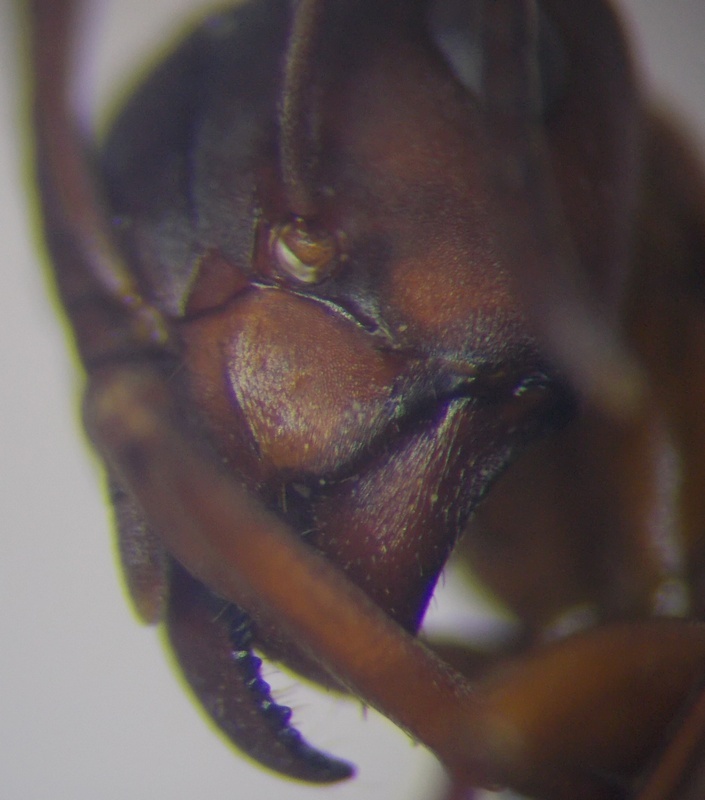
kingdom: Animalia
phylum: Arthropoda
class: Insecta
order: Hymenoptera
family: Formicidae
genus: Formica
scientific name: Formica sanguinea
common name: Blood-red ant
